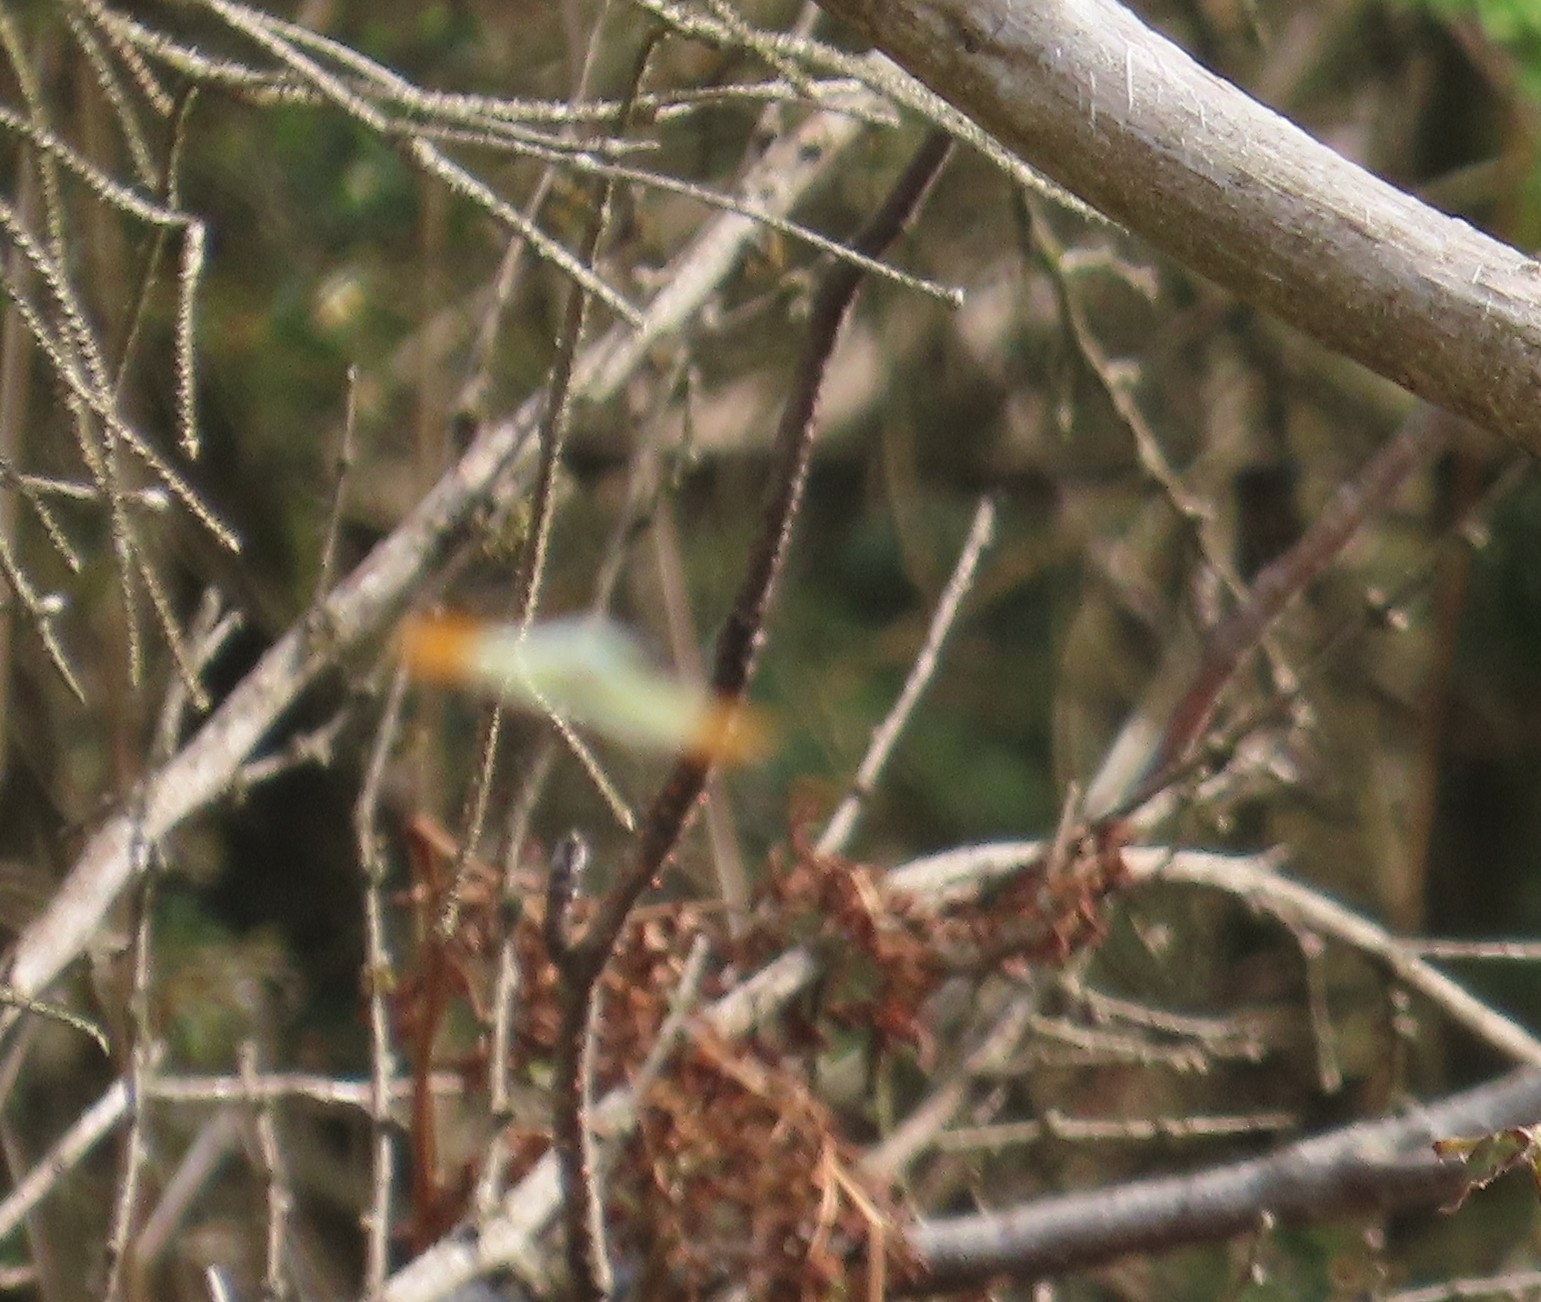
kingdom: Animalia
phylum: Arthropoda
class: Insecta
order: Lepidoptera
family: Pieridae
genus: Anthocharis
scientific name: Anthocharis cardamines
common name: Orange-tip
